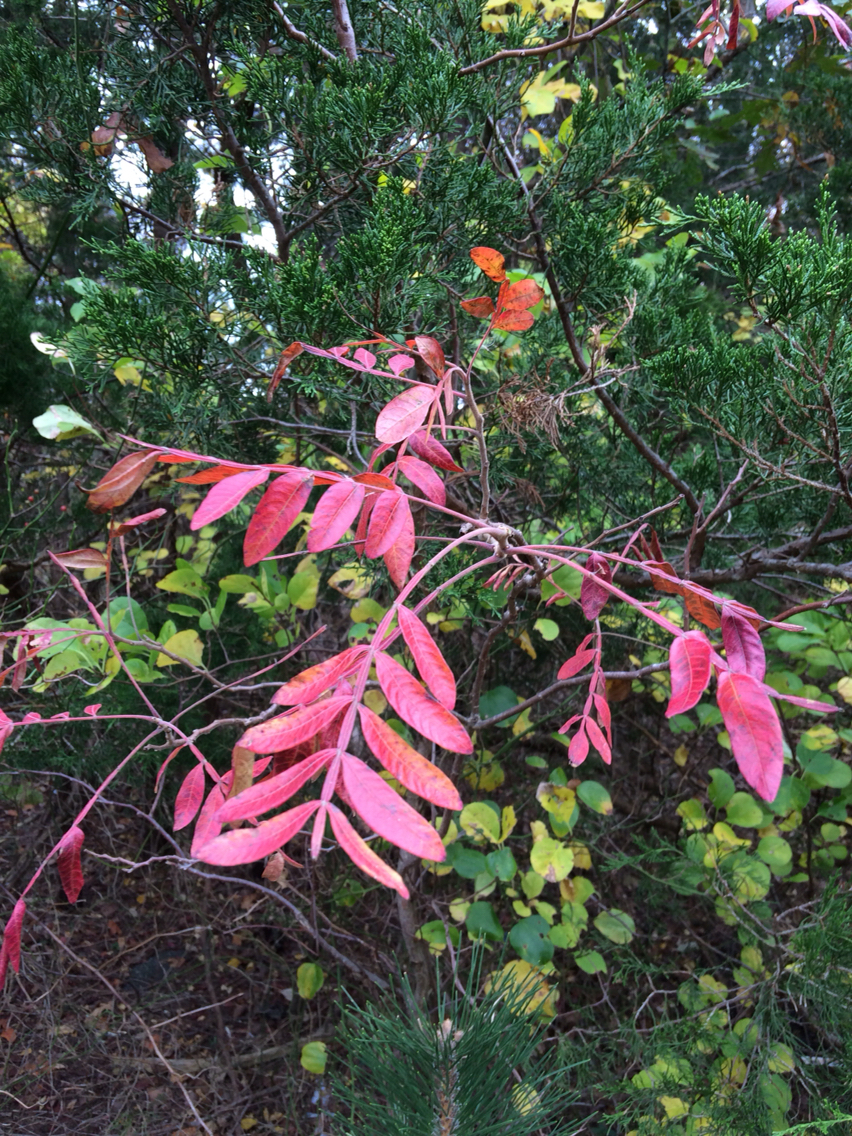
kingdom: Plantae
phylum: Tracheophyta
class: Magnoliopsida
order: Sapindales
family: Anacardiaceae
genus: Rhus
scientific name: Rhus copallina
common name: Shining sumac
